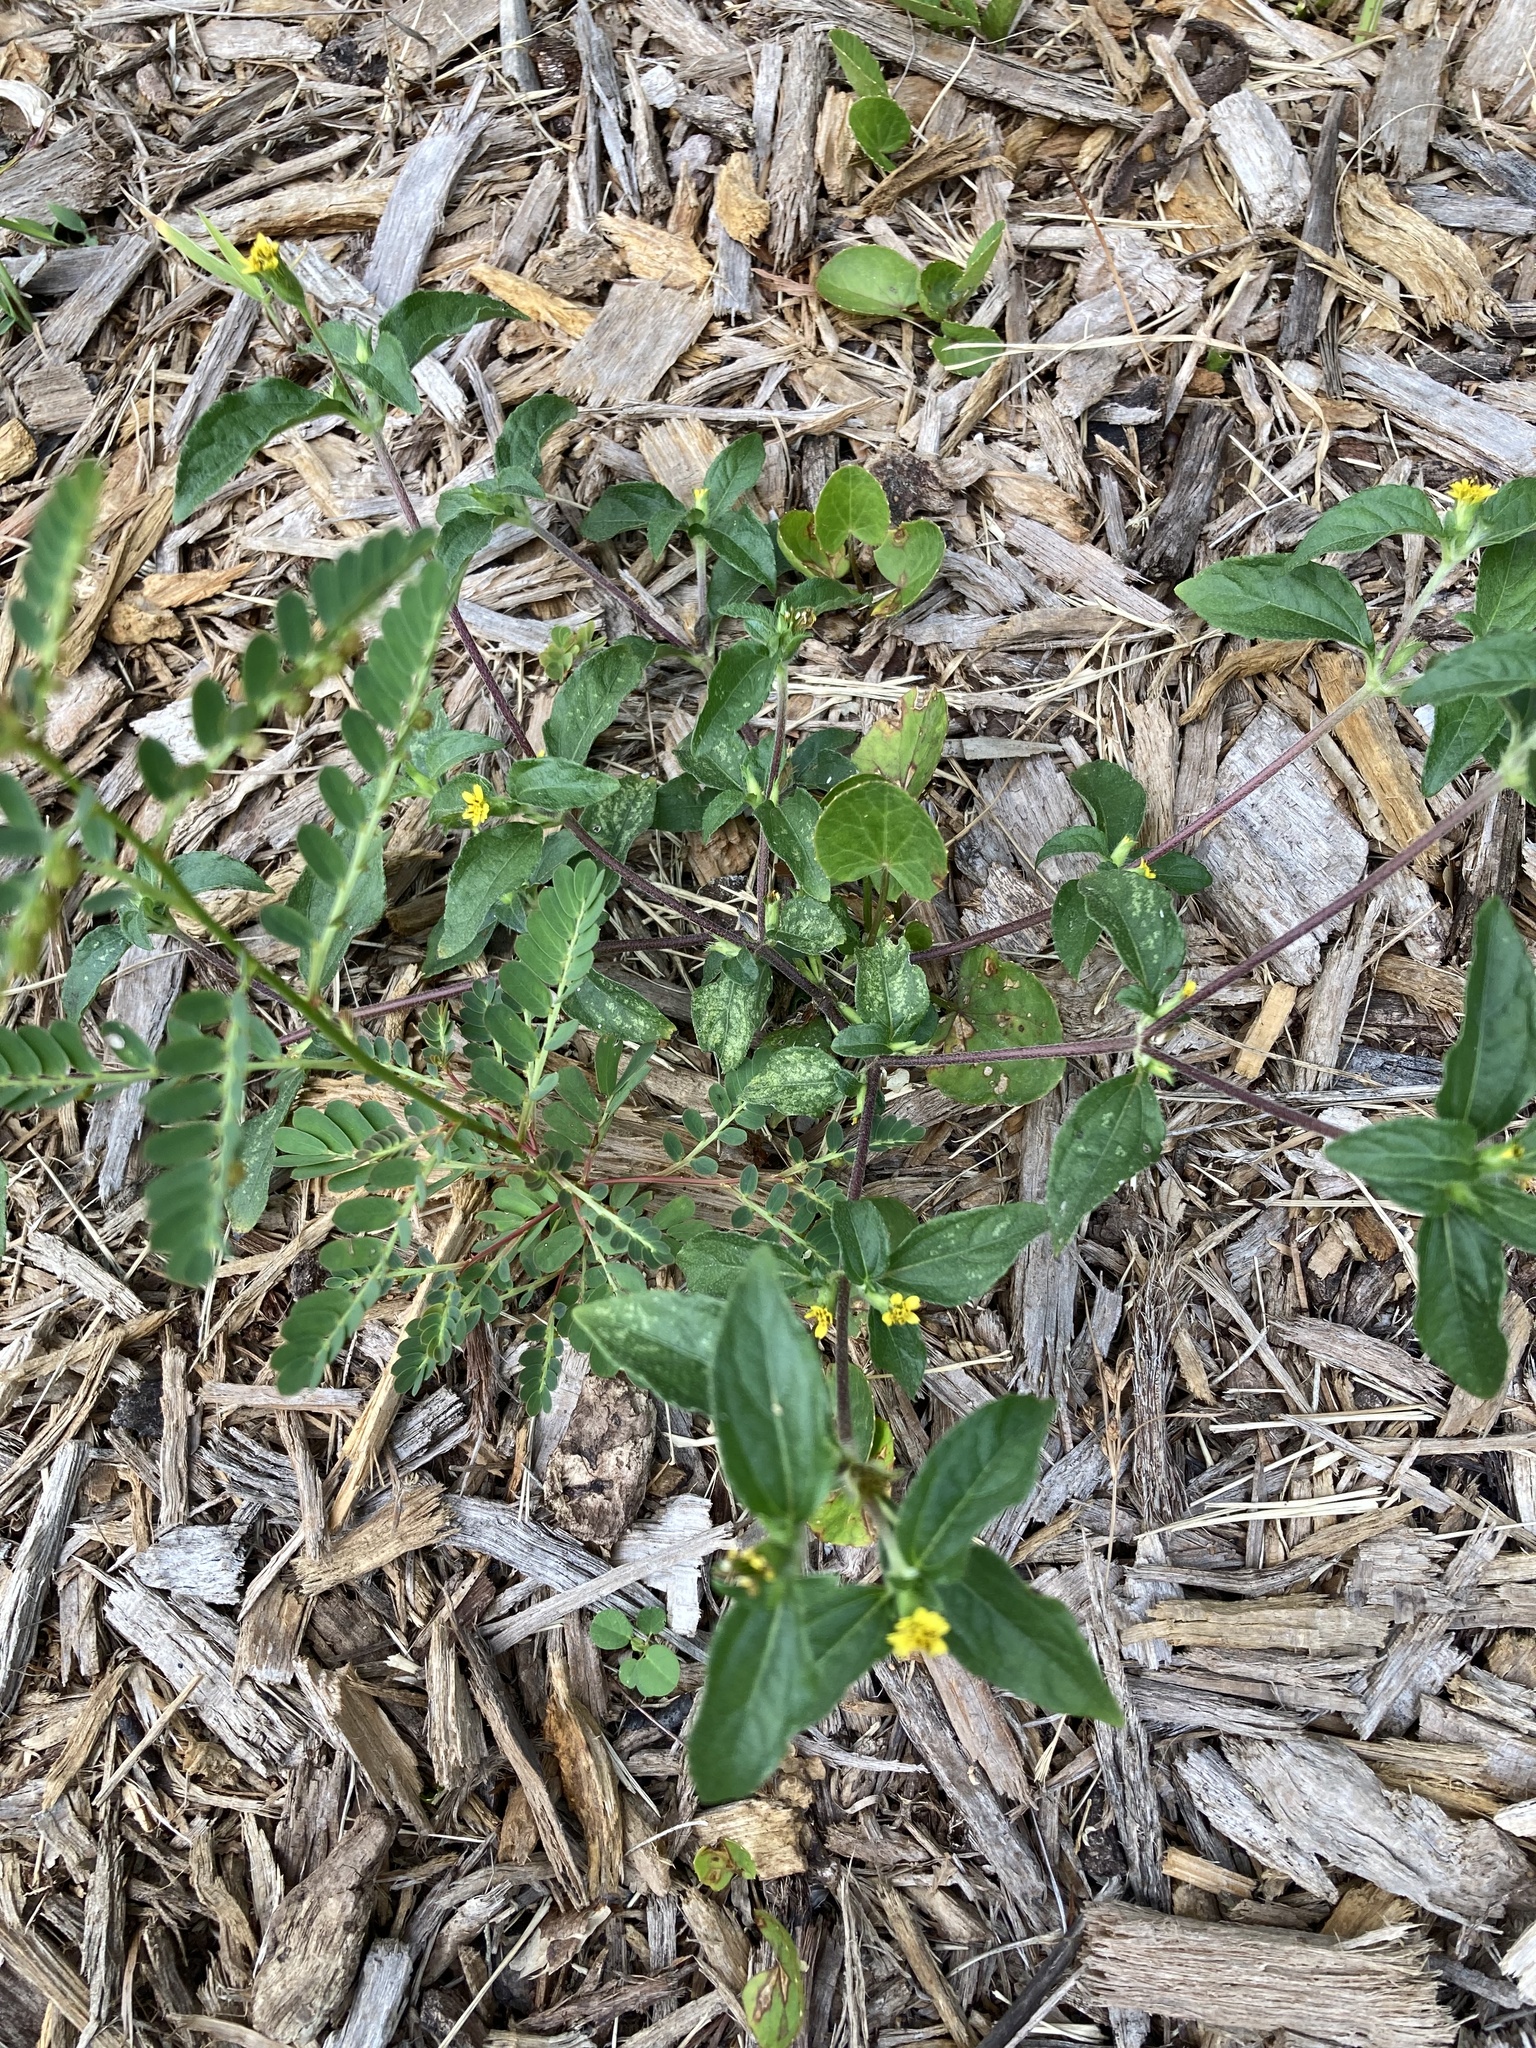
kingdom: Plantae
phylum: Tracheophyta
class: Magnoliopsida
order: Asterales
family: Asteraceae
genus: Synedrella
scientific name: Synedrella nodiflora
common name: Nodeweed
